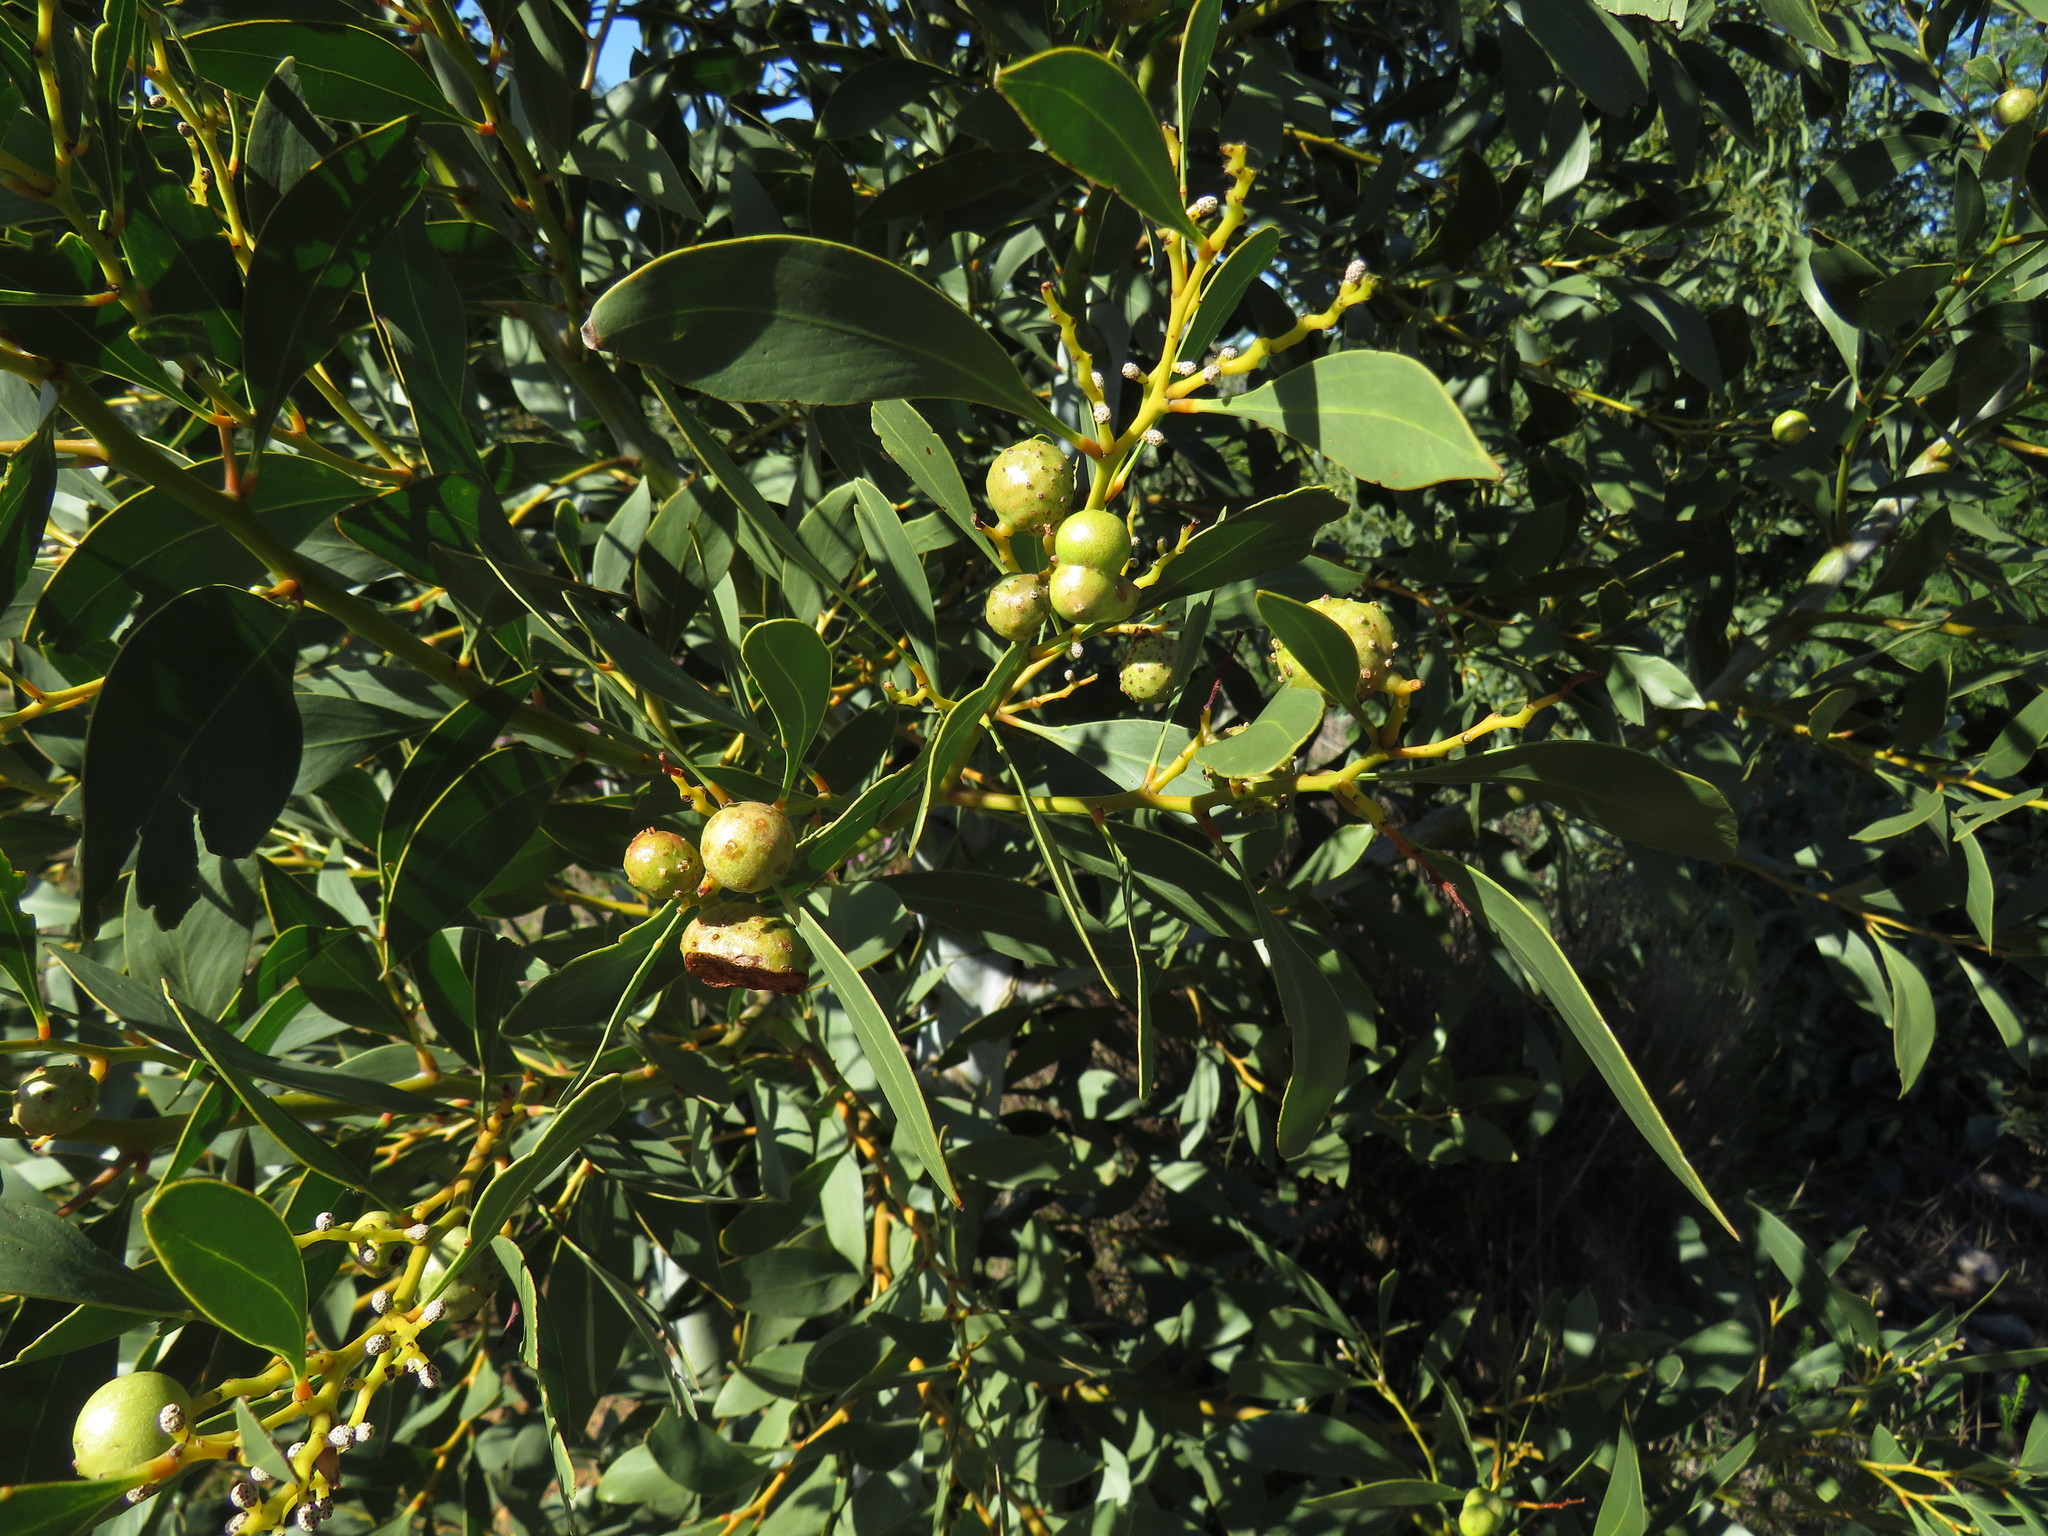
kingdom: Plantae
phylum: Tracheophyta
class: Magnoliopsida
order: Fabales
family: Fabaceae
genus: Acacia
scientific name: Acacia pycnantha
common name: Golden wattle
